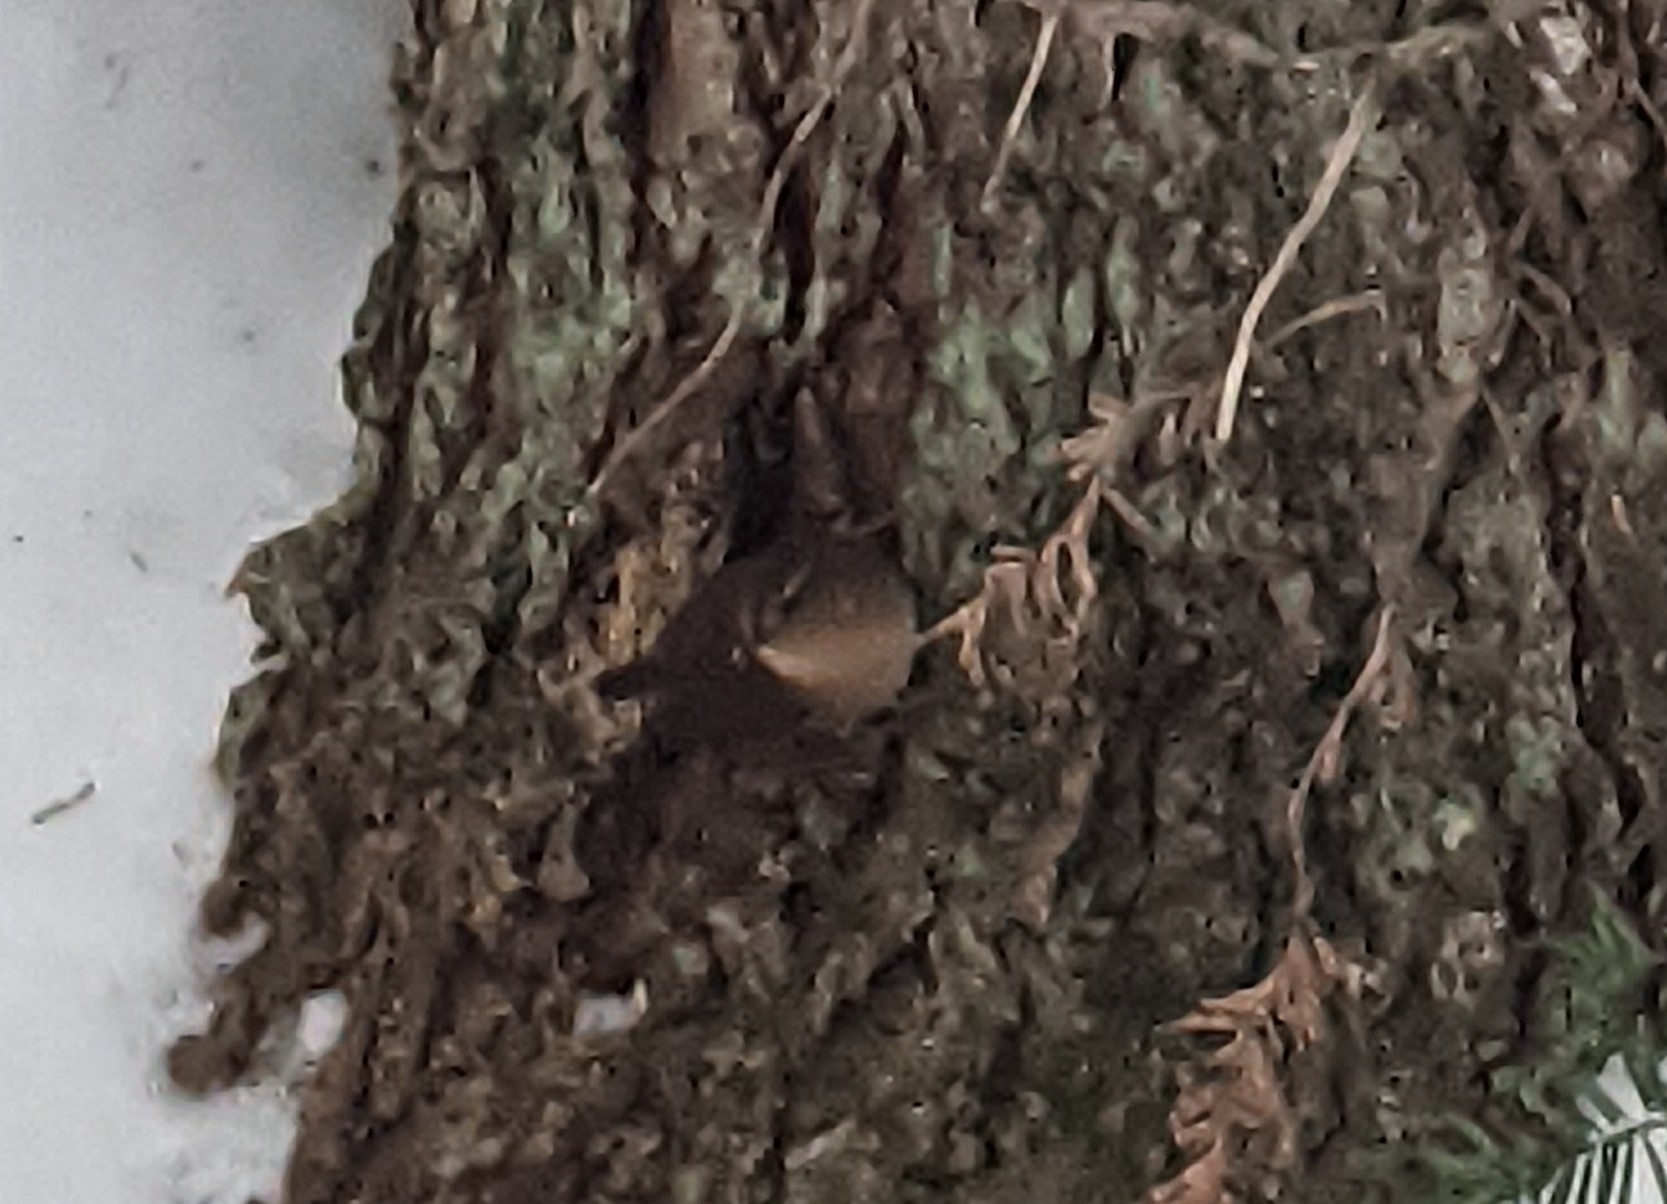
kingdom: Animalia
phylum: Chordata
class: Aves
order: Passeriformes
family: Troglodytidae
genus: Troglodytes
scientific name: Troglodytes pacificus
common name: Pacific wren
